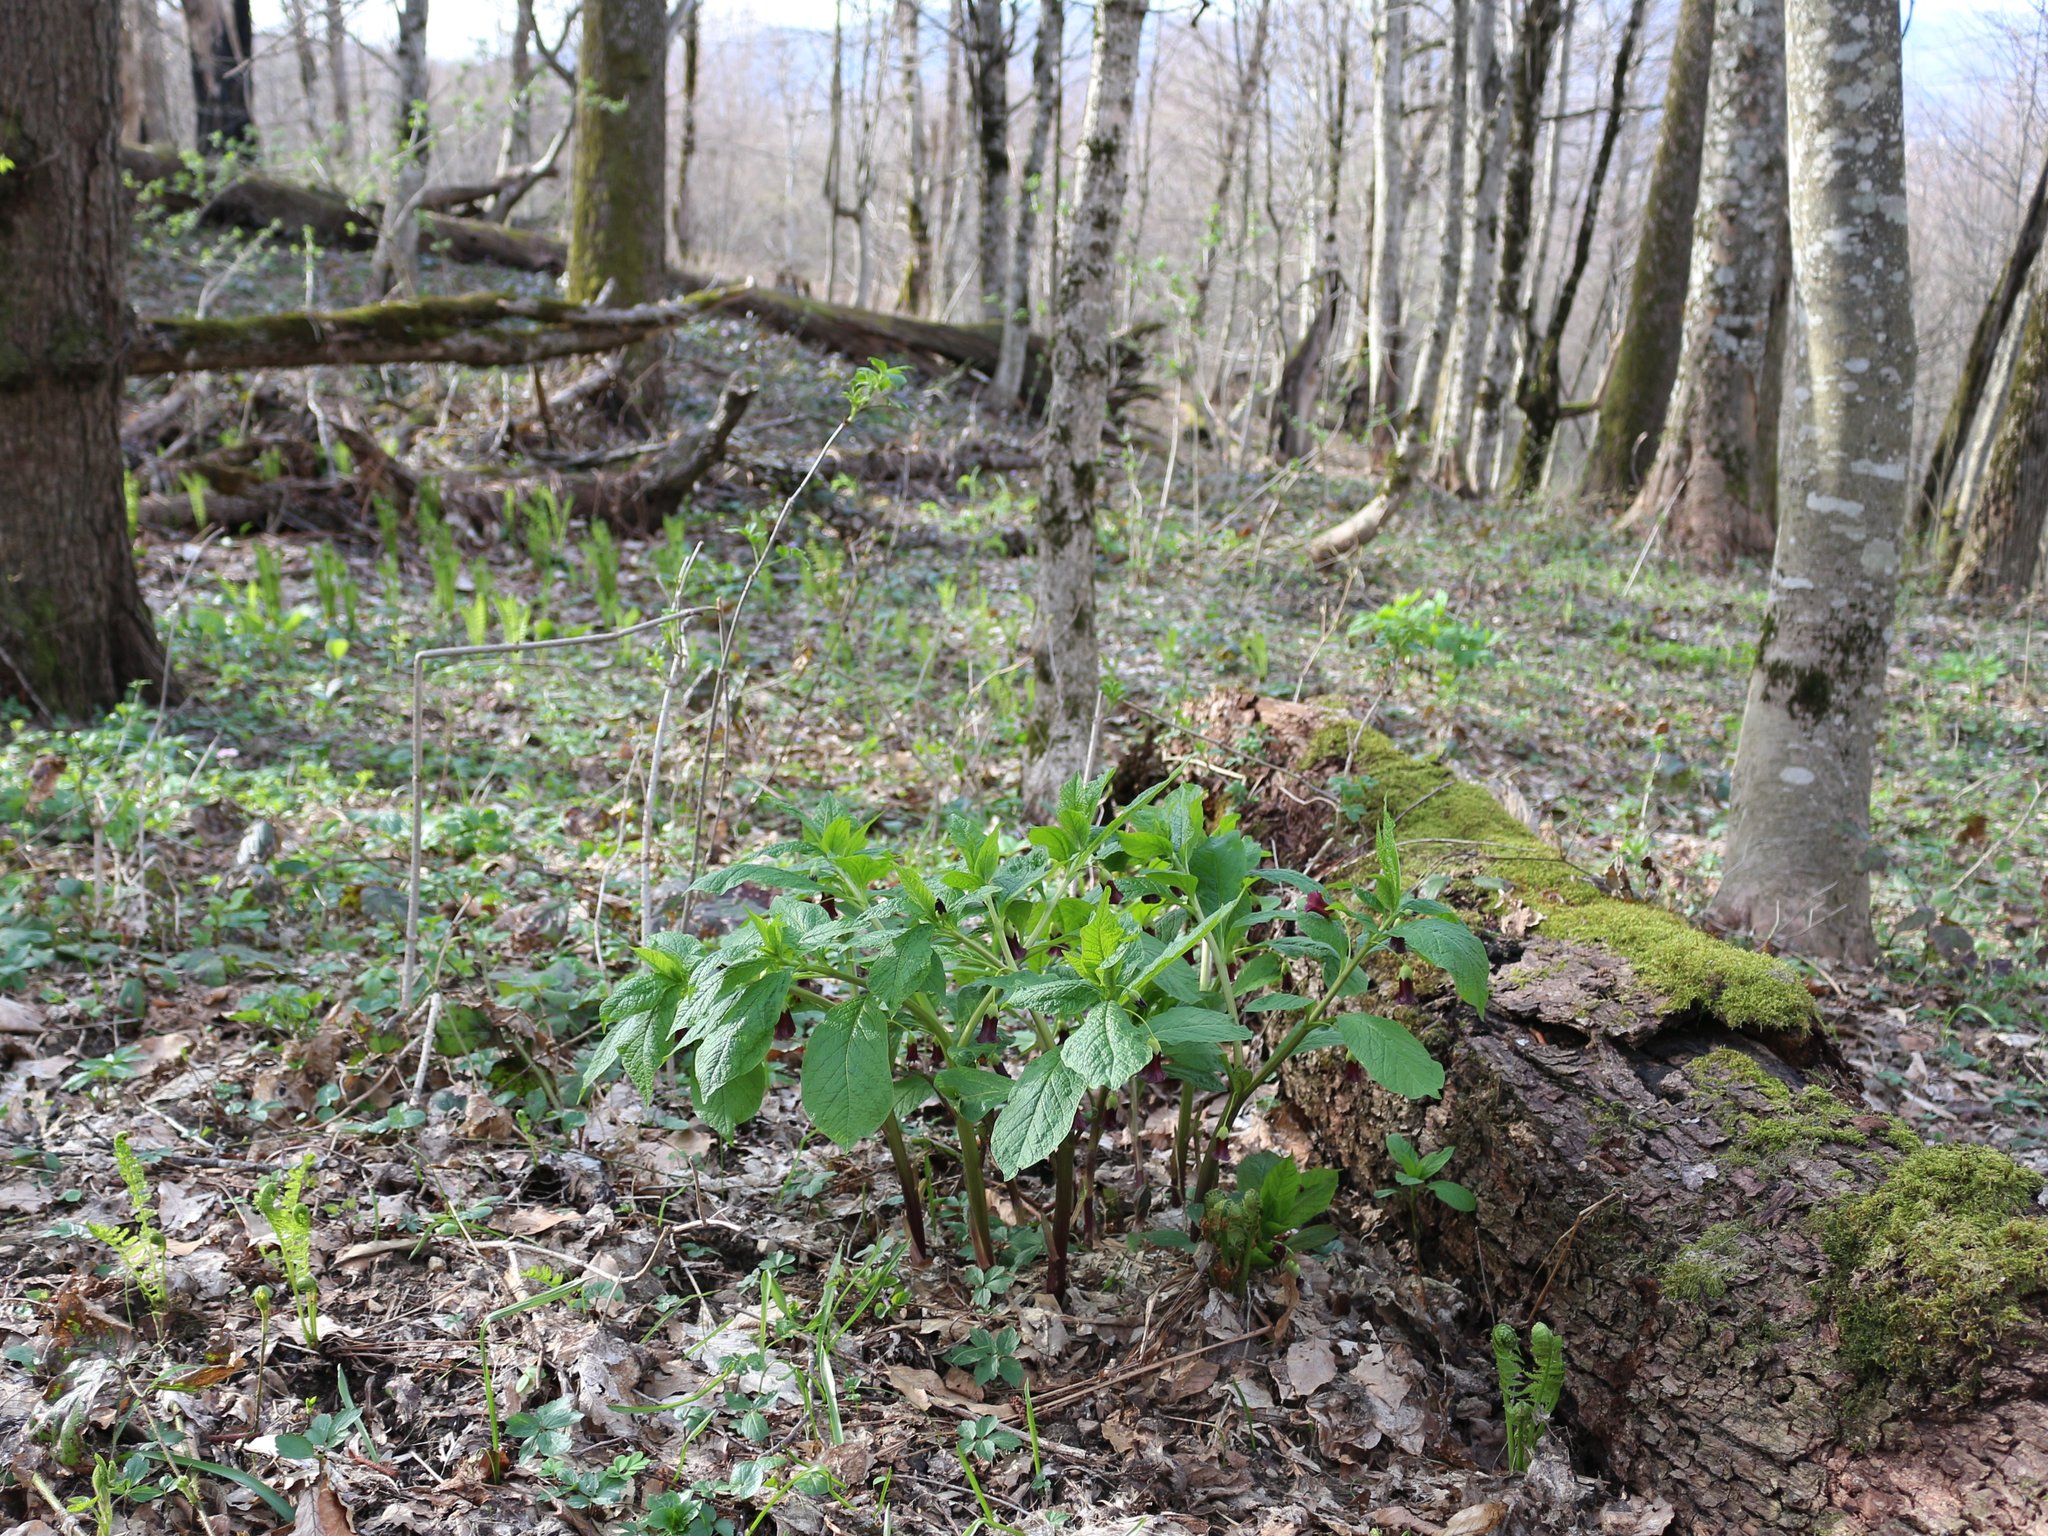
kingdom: Plantae
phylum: Tracheophyta
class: Magnoliopsida
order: Solanales
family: Solanaceae
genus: Scopolia
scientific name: Scopolia carniolica
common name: Scopolia
